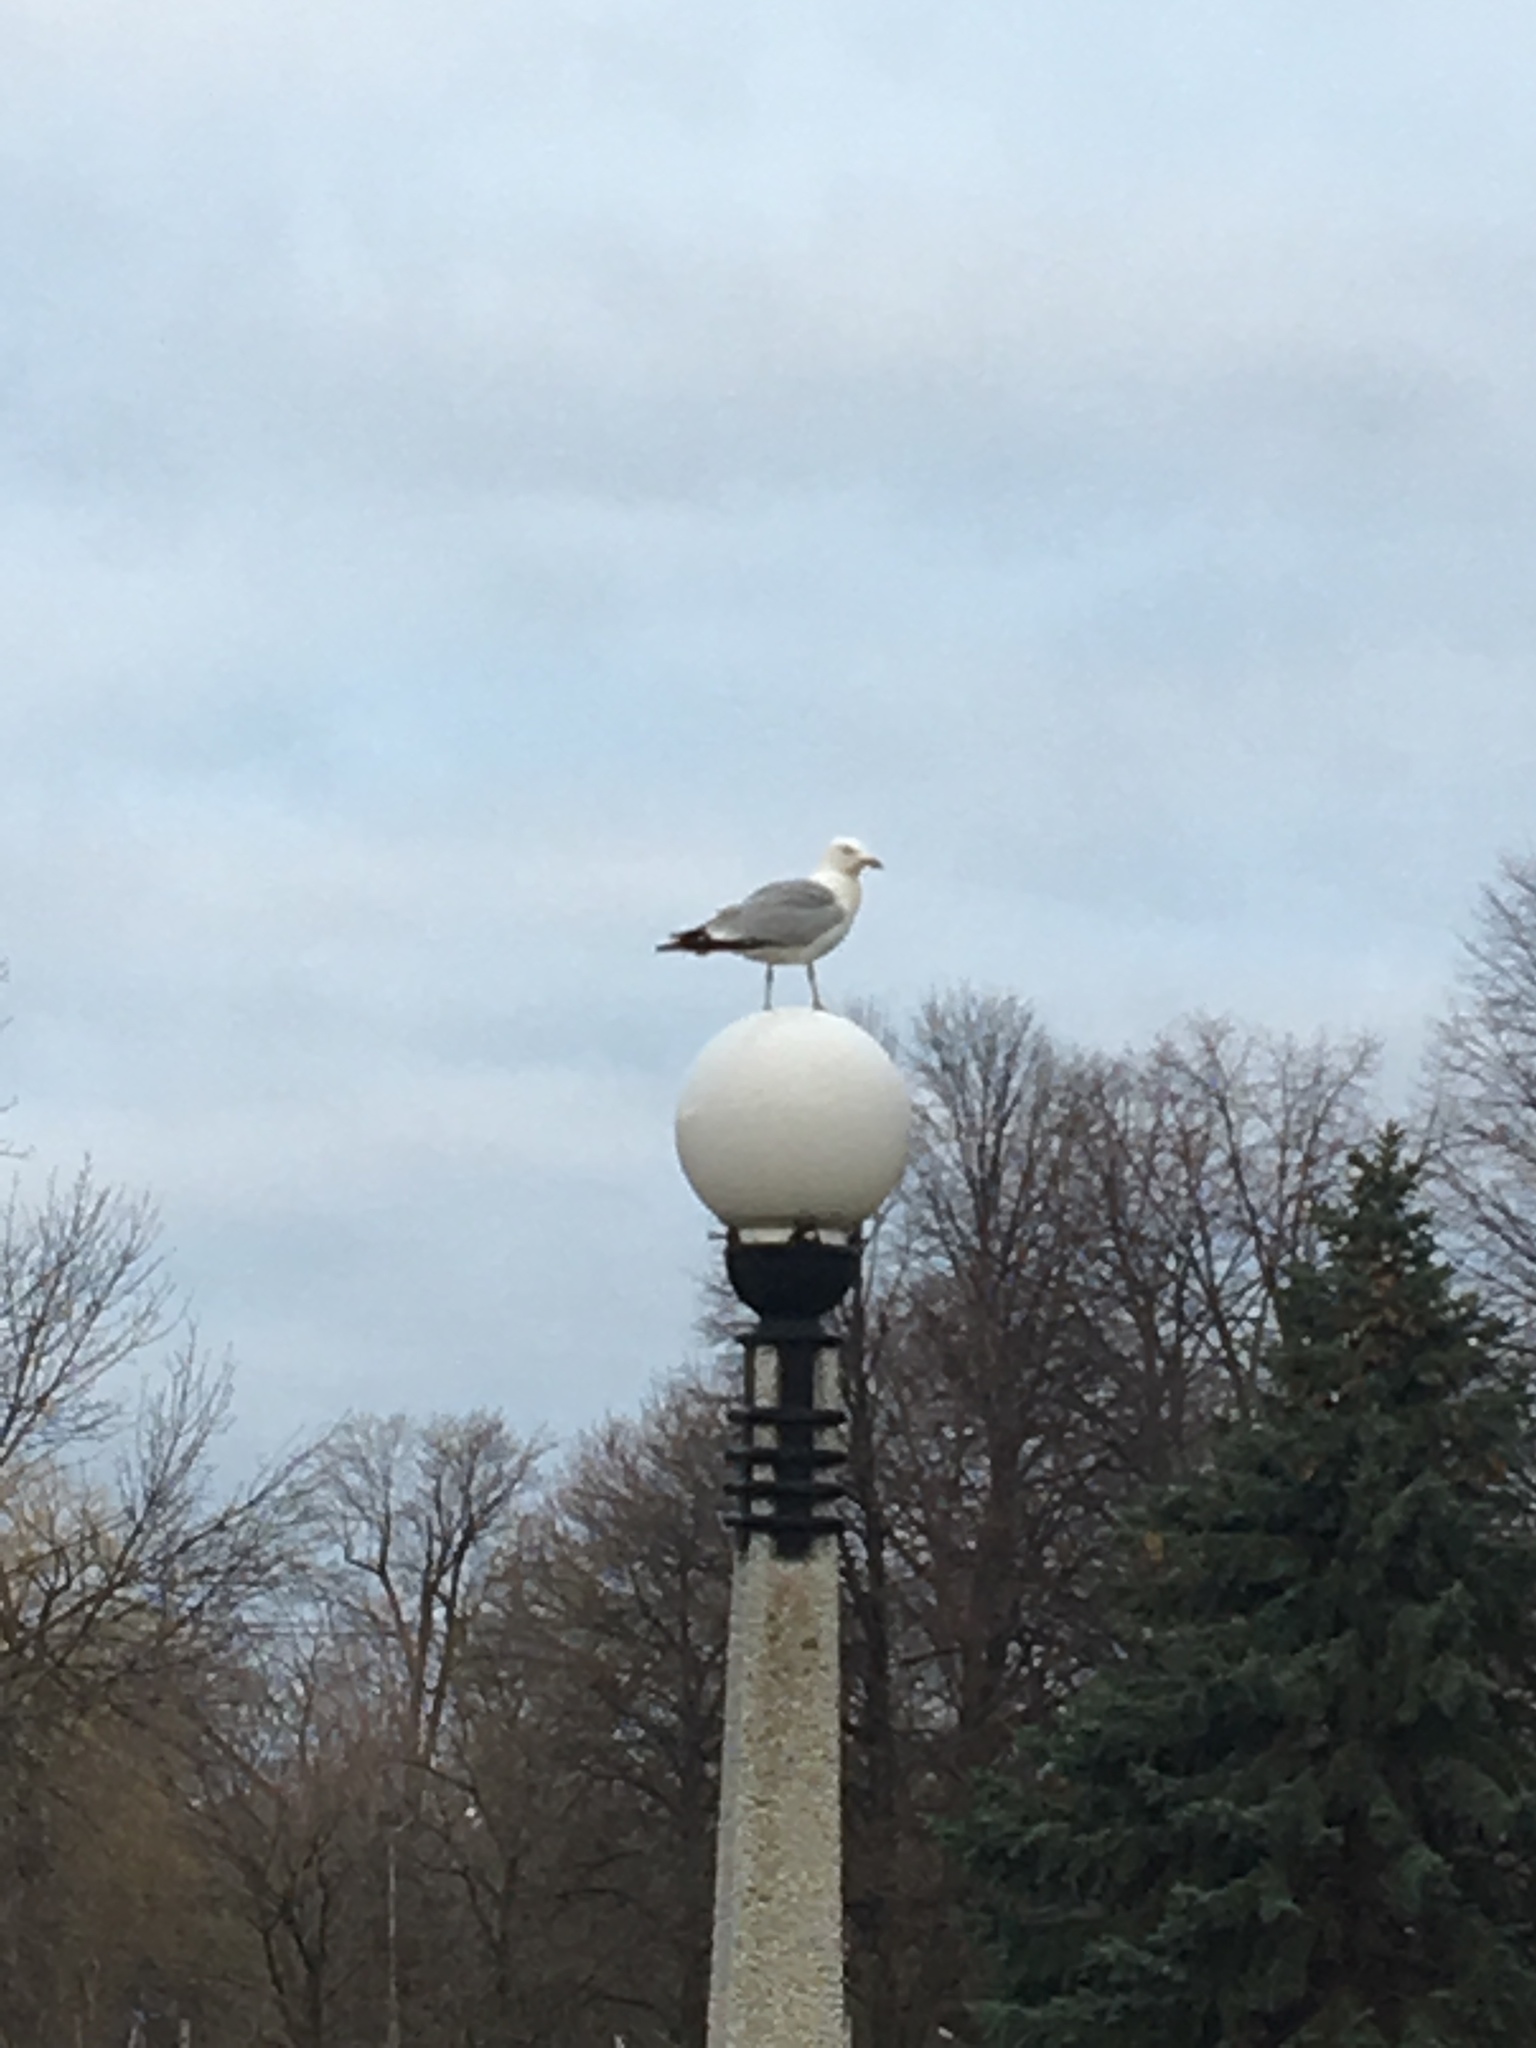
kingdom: Animalia
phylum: Chordata
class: Aves
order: Charadriiformes
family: Laridae
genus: Larus
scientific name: Larus argentatus
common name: Herring gull
